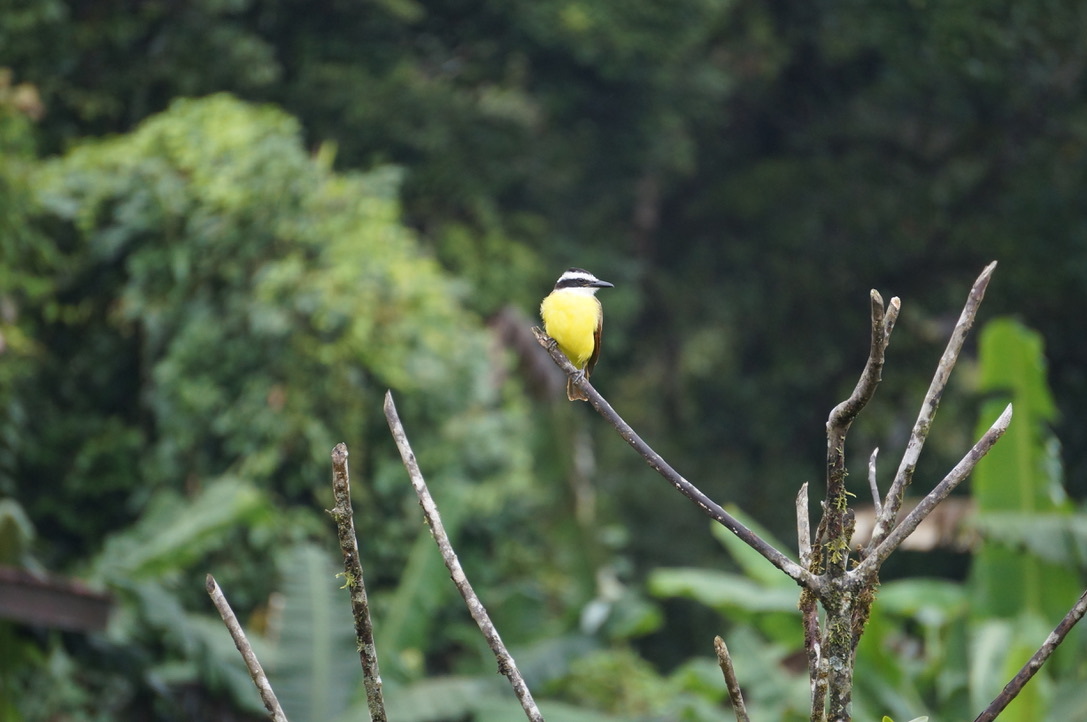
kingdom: Animalia
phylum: Chordata
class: Aves
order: Passeriformes
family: Tyrannidae
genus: Pitangus
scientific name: Pitangus sulphuratus
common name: Great kiskadee
